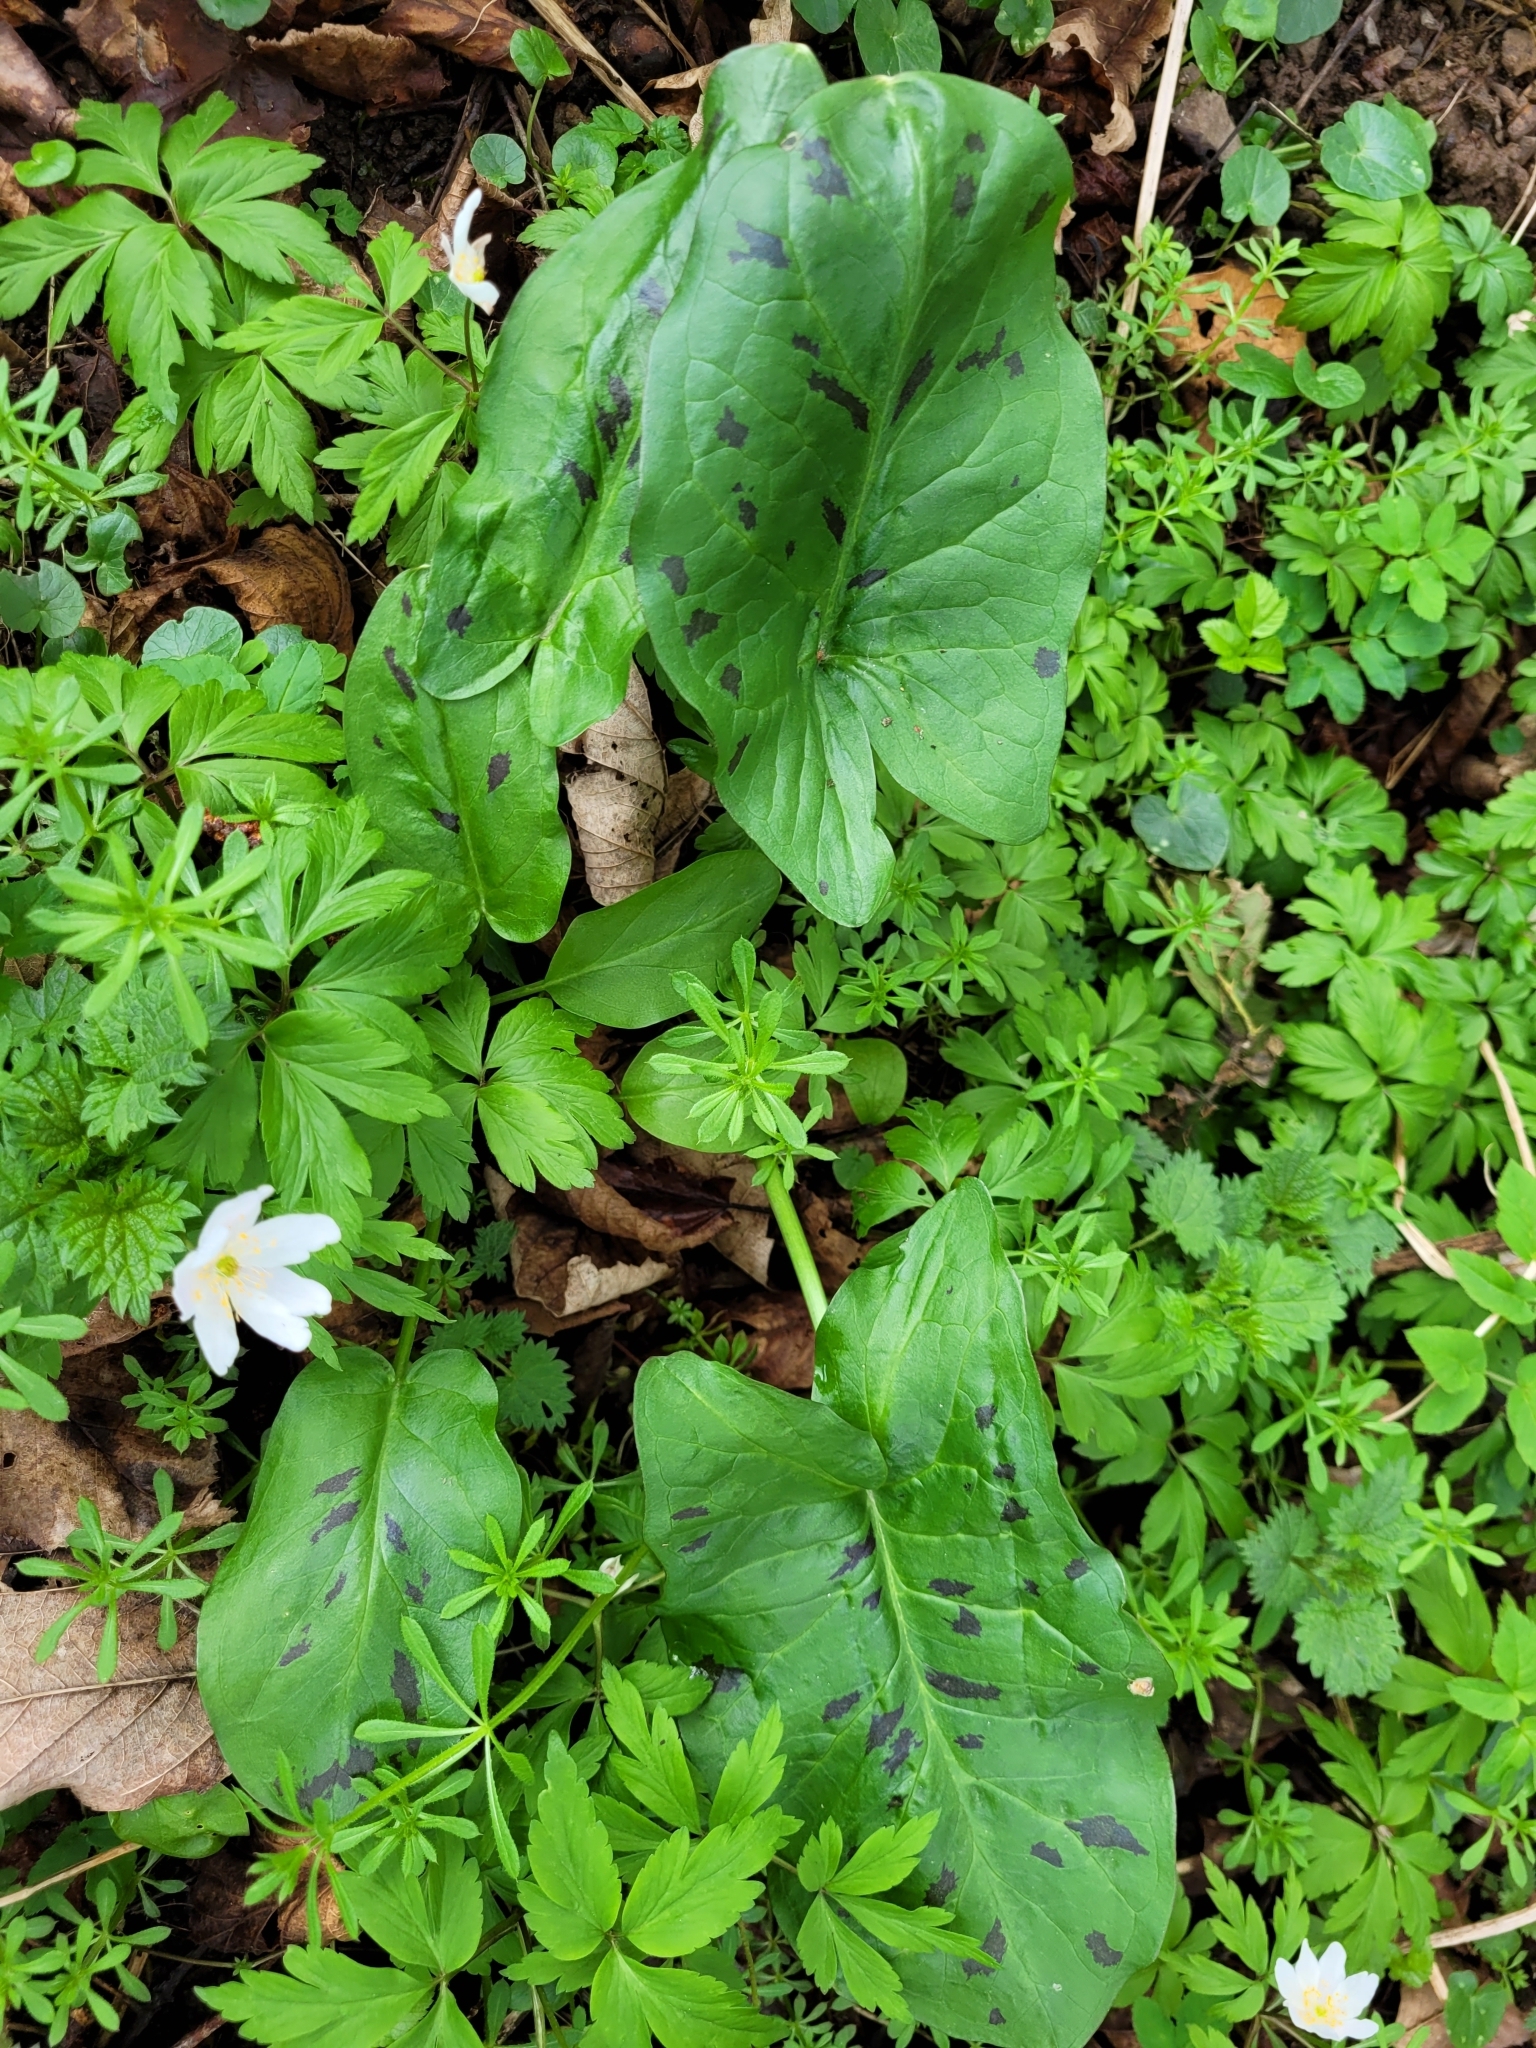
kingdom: Plantae
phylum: Tracheophyta
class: Liliopsida
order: Alismatales
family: Araceae
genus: Arum
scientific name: Arum maculatum
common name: Lords-and-ladies
